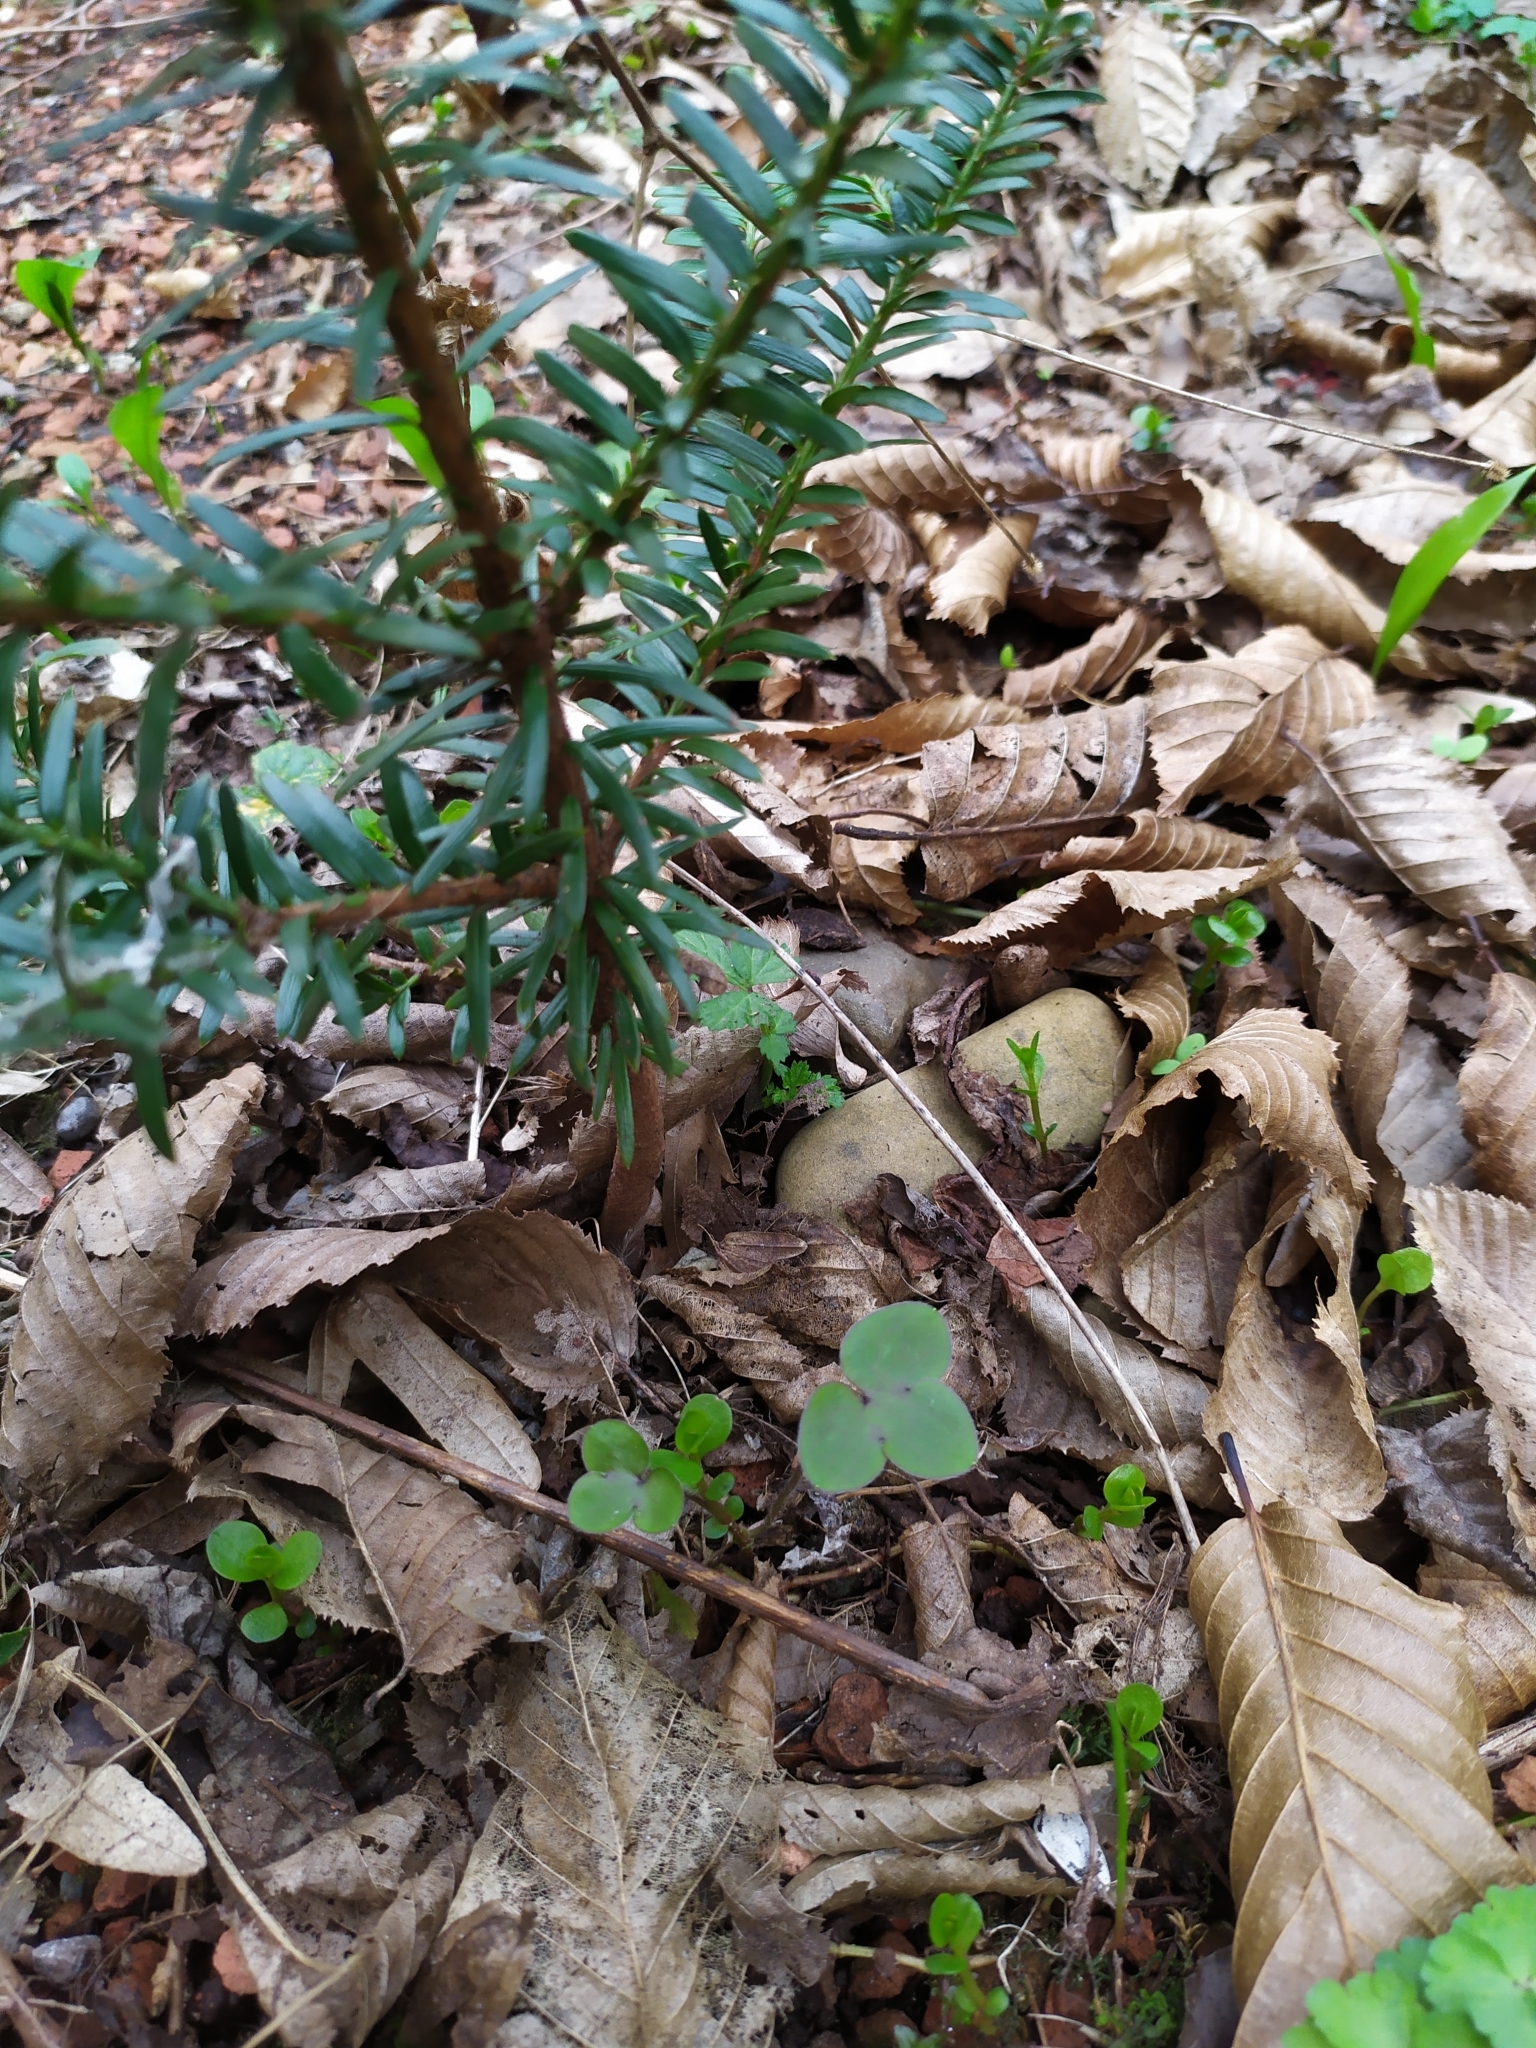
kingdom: Plantae
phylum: Tracheophyta
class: Magnoliopsida
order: Ranunculales
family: Ranunculaceae
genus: Hepatica
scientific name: Hepatica nobilis
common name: Liverleaf
